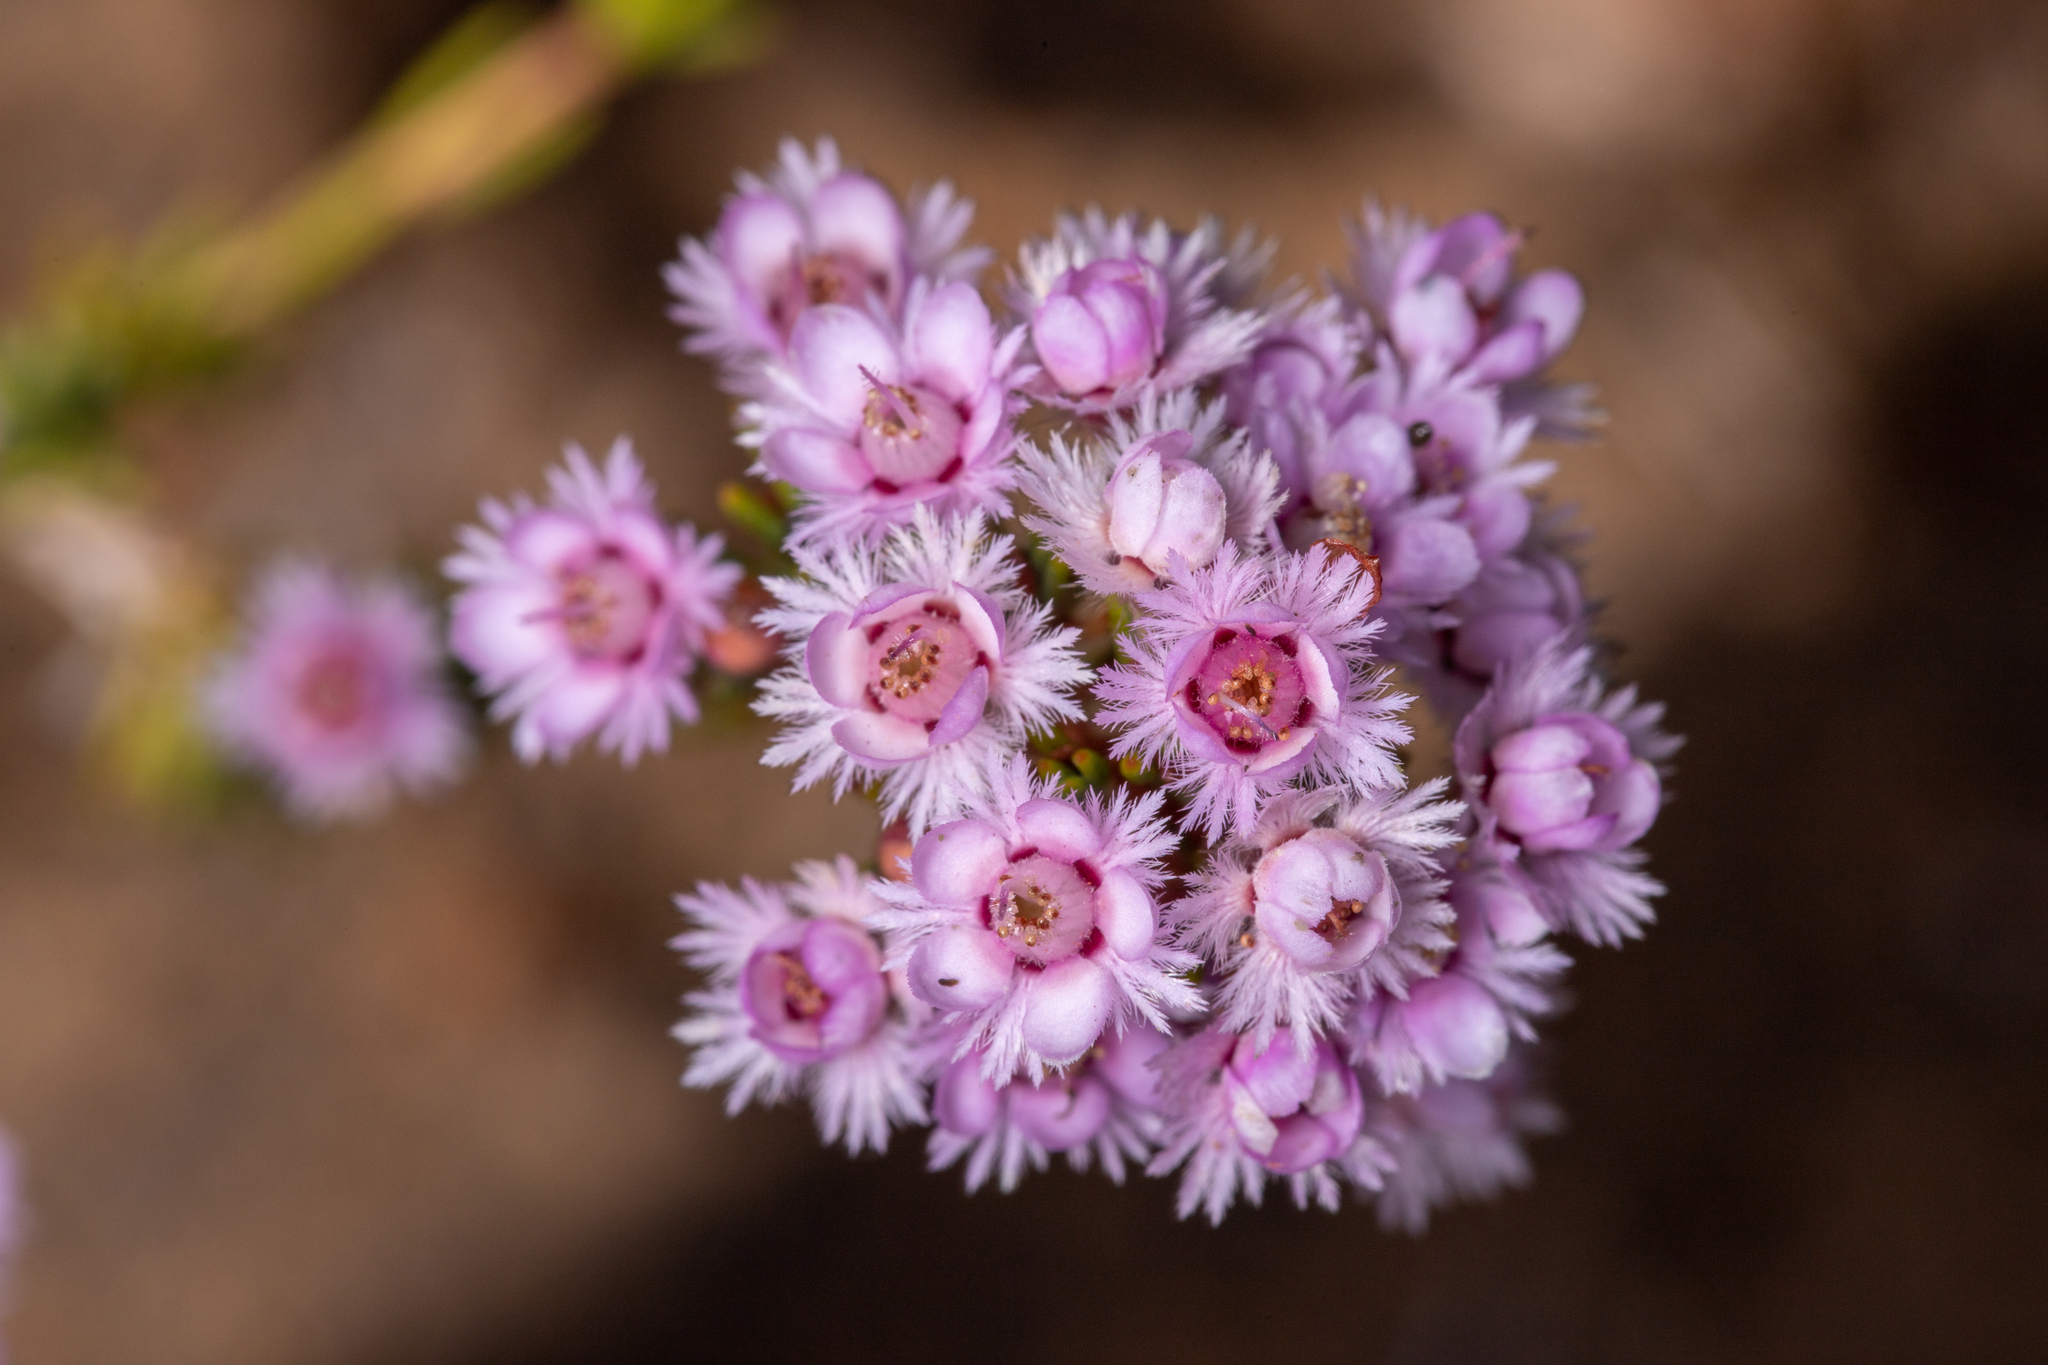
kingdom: Plantae
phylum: Tracheophyta
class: Magnoliopsida
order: Myrtales
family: Myrtaceae
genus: Verticordia
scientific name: Verticordia plumosa
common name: Plume feather-flower
